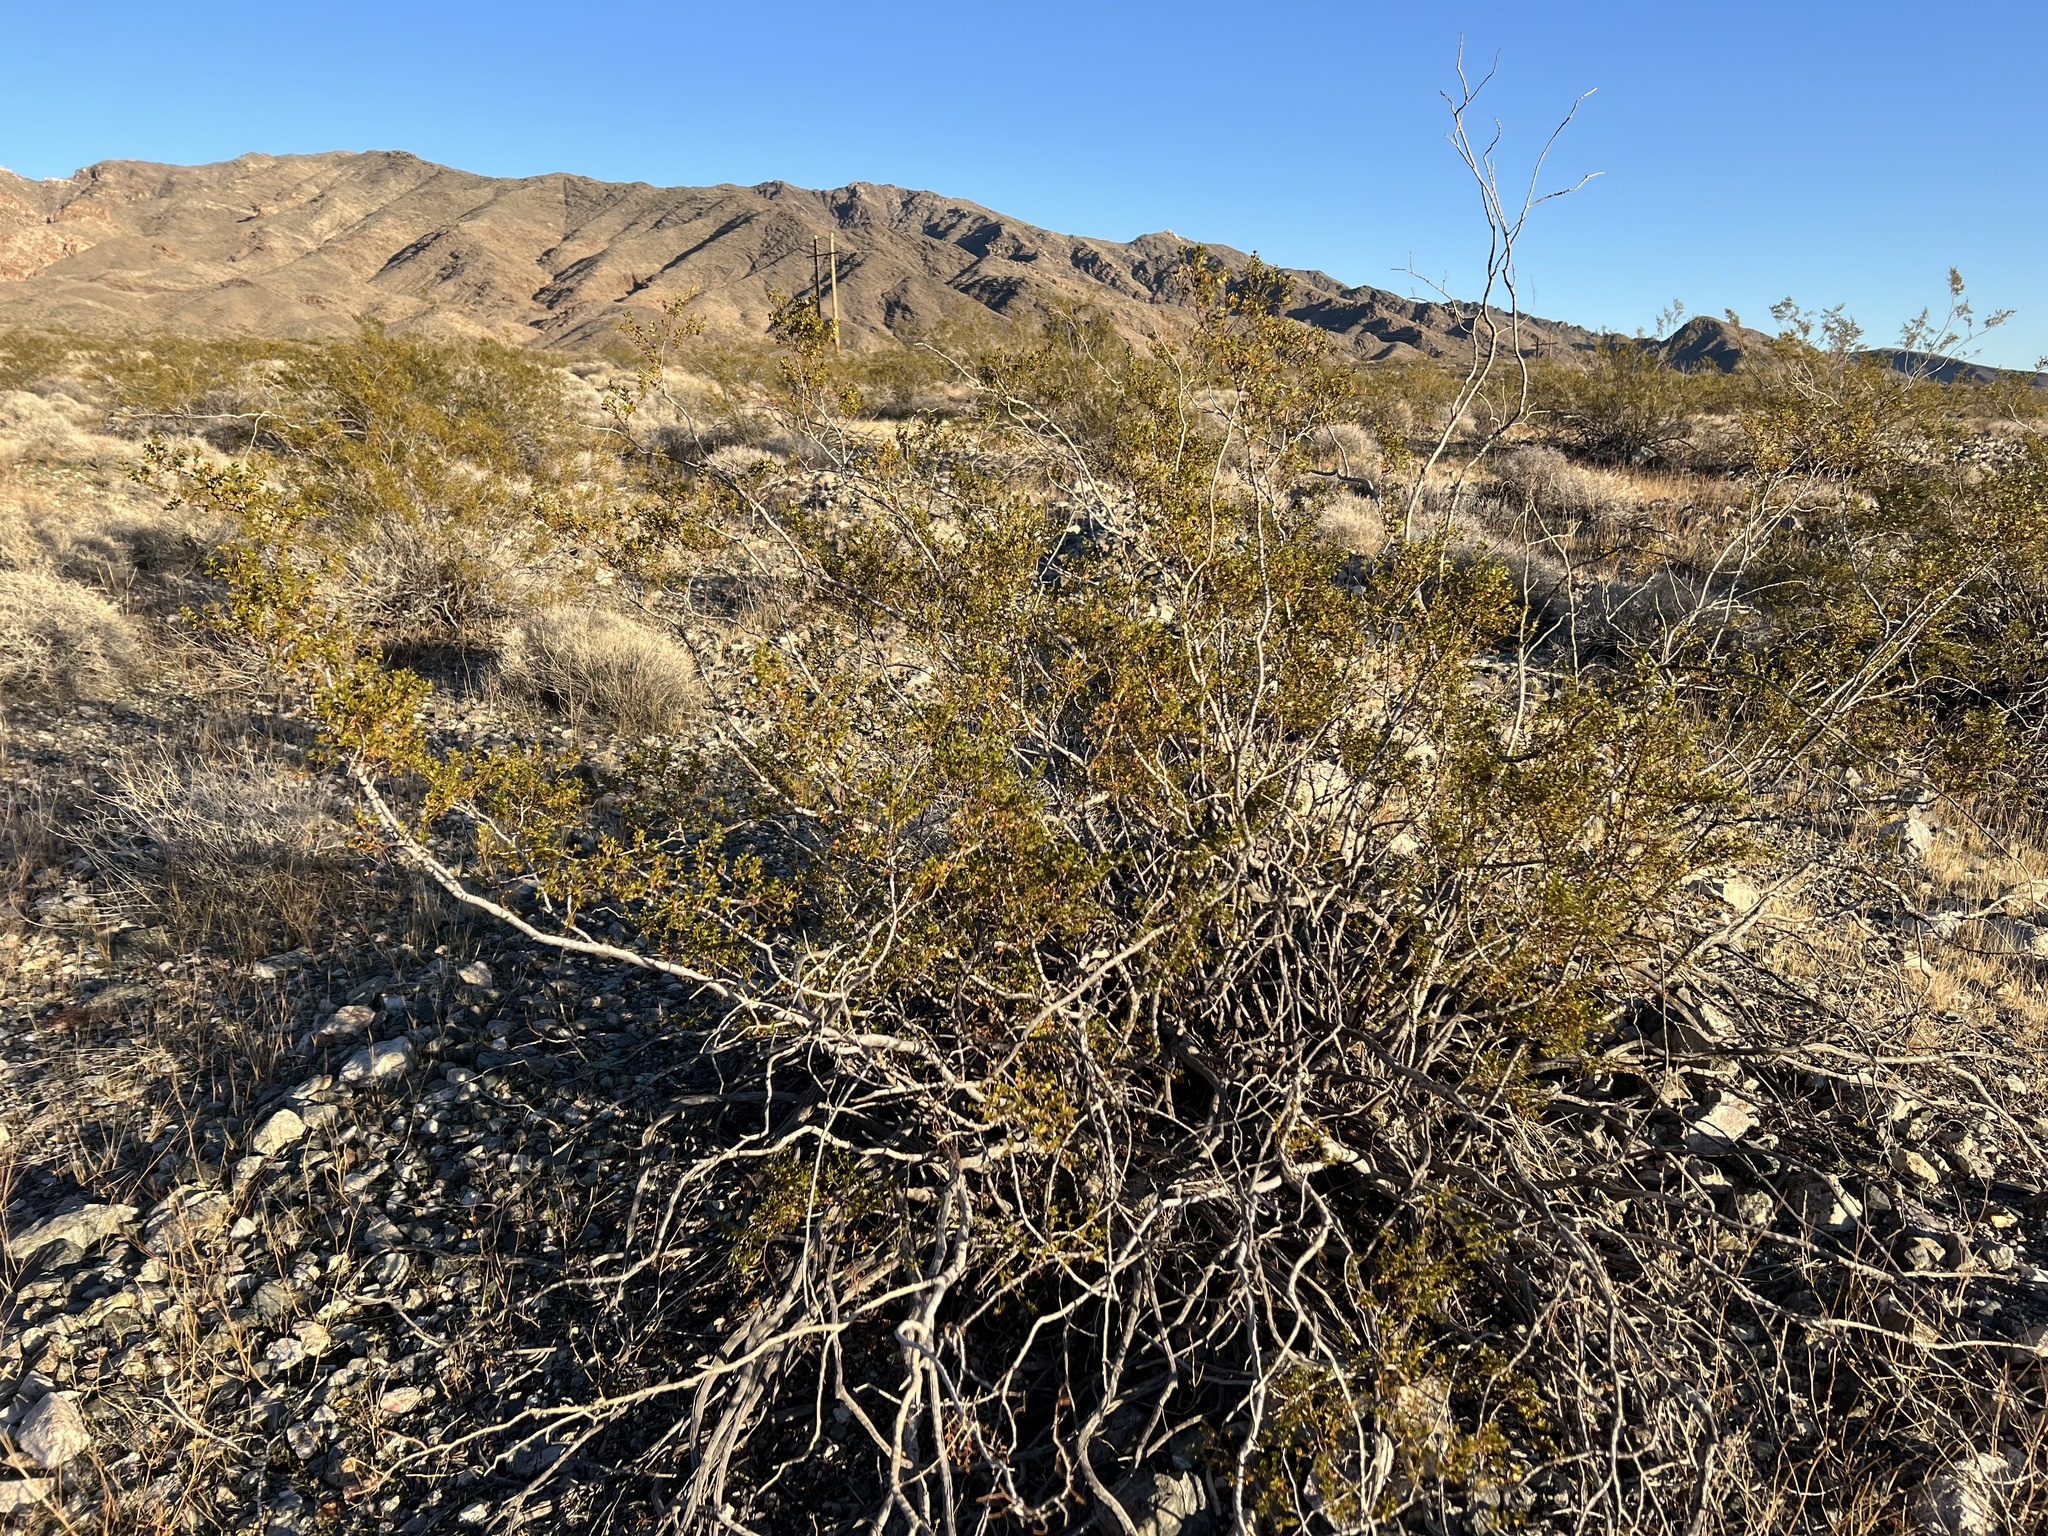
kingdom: Plantae
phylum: Tracheophyta
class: Magnoliopsida
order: Zygophyllales
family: Zygophyllaceae
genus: Larrea
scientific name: Larrea tridentata
